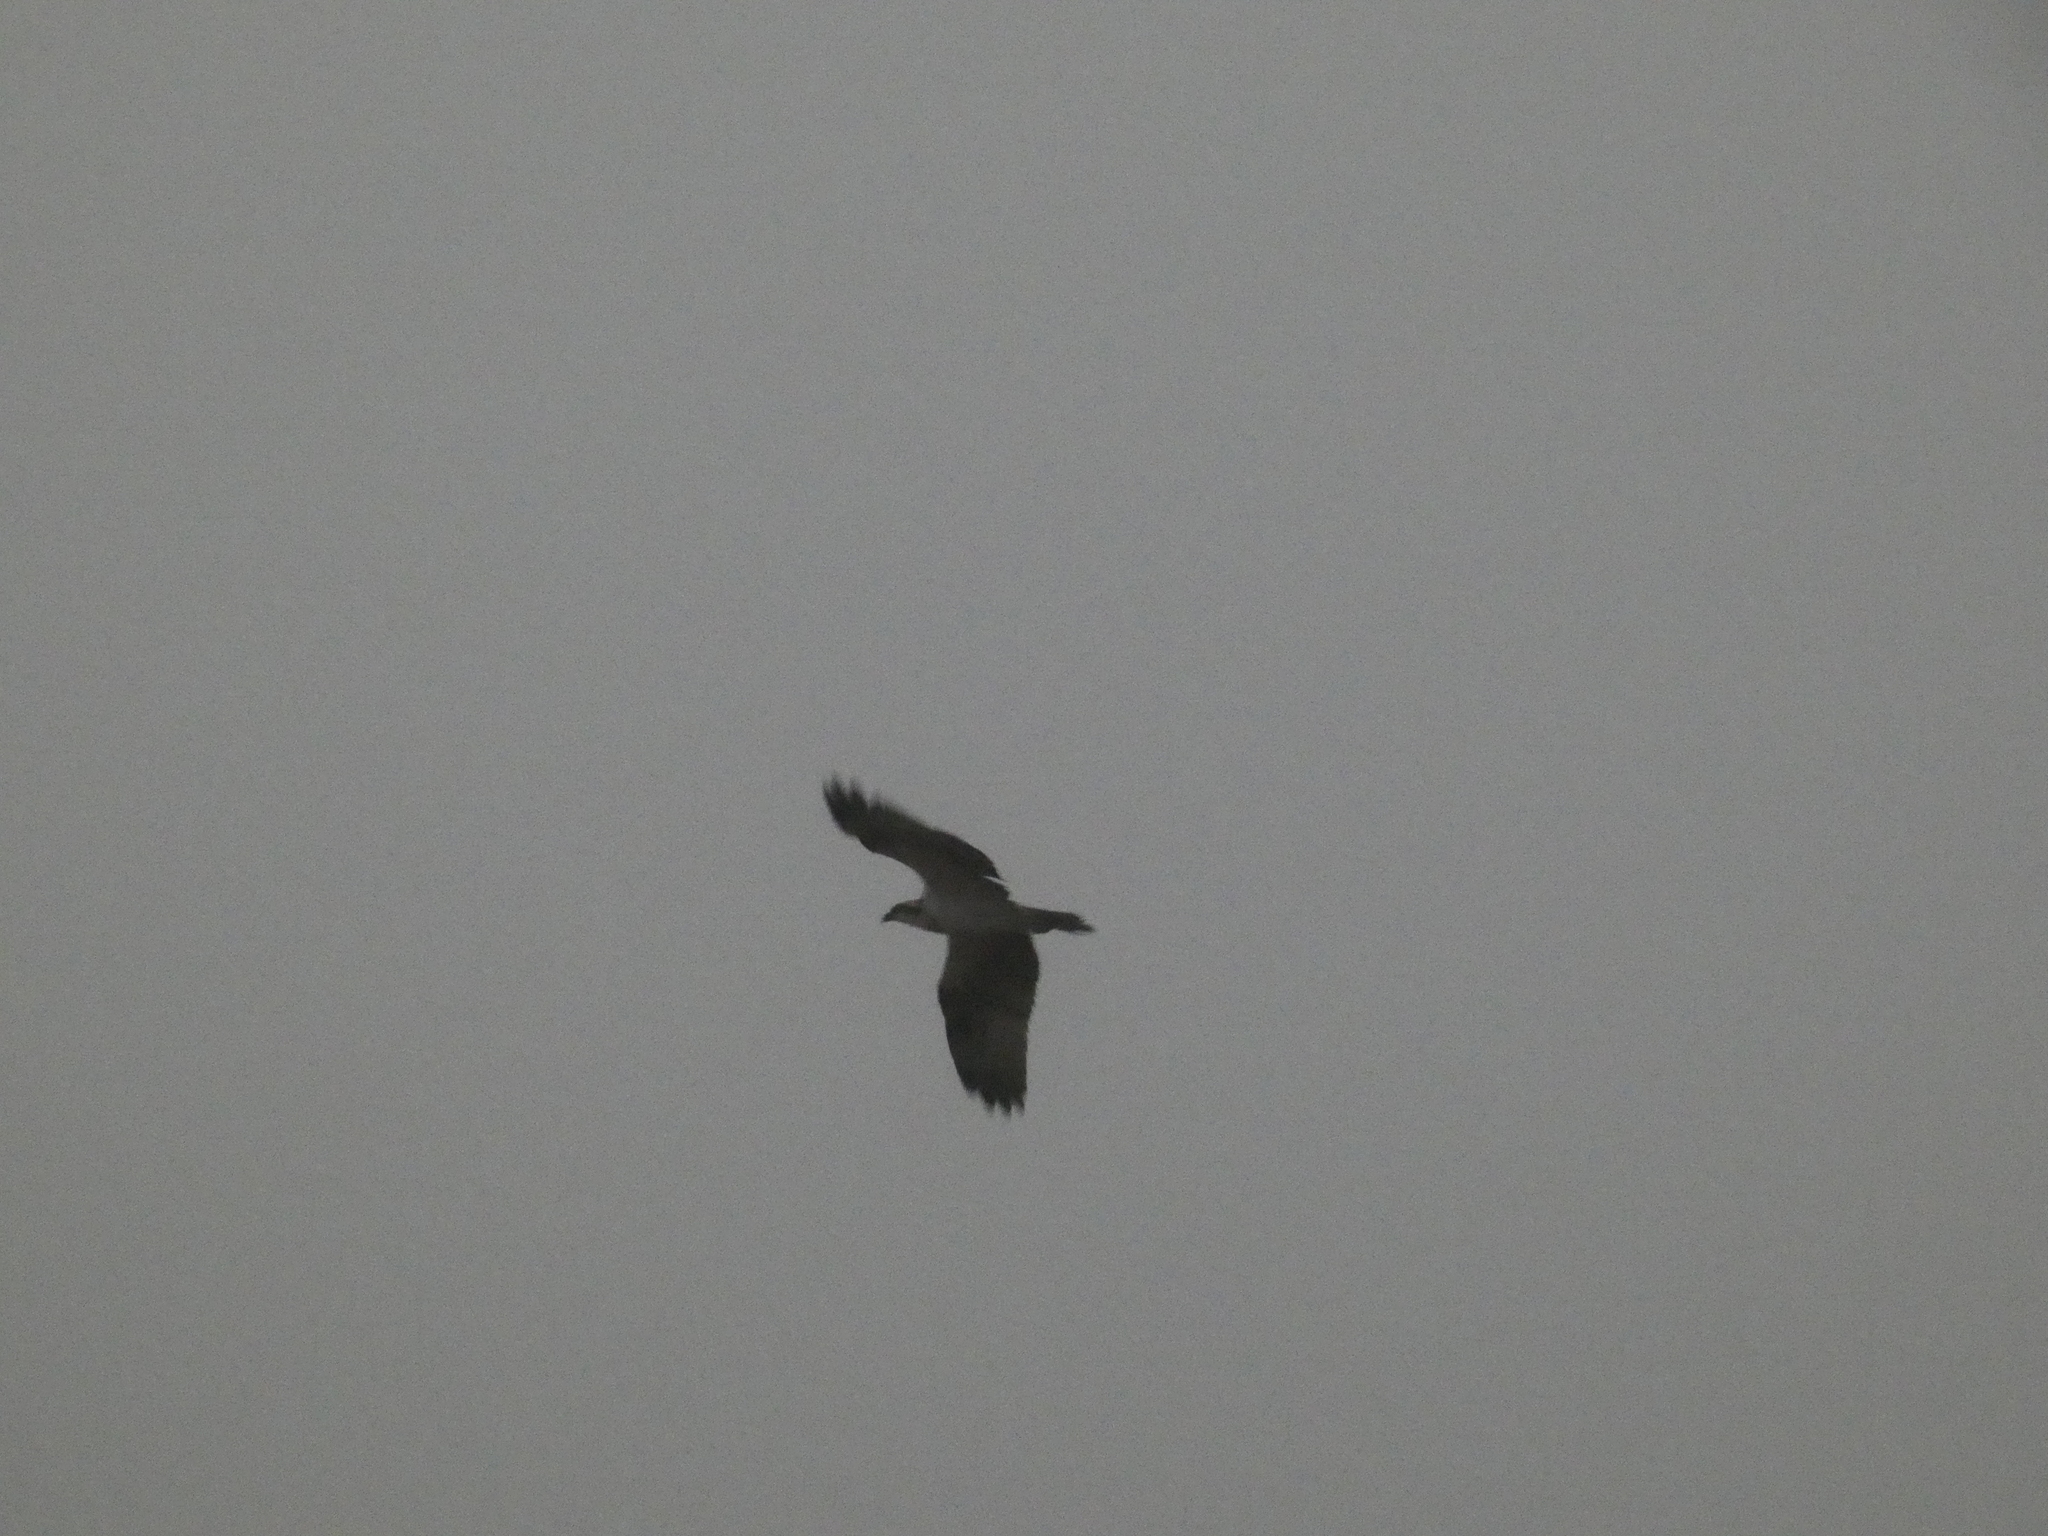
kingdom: Animalia
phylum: Chordata
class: Aves
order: Accipitriformes
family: Pandionidae
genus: Pandion
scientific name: Pandion haliaetus
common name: Osprey
